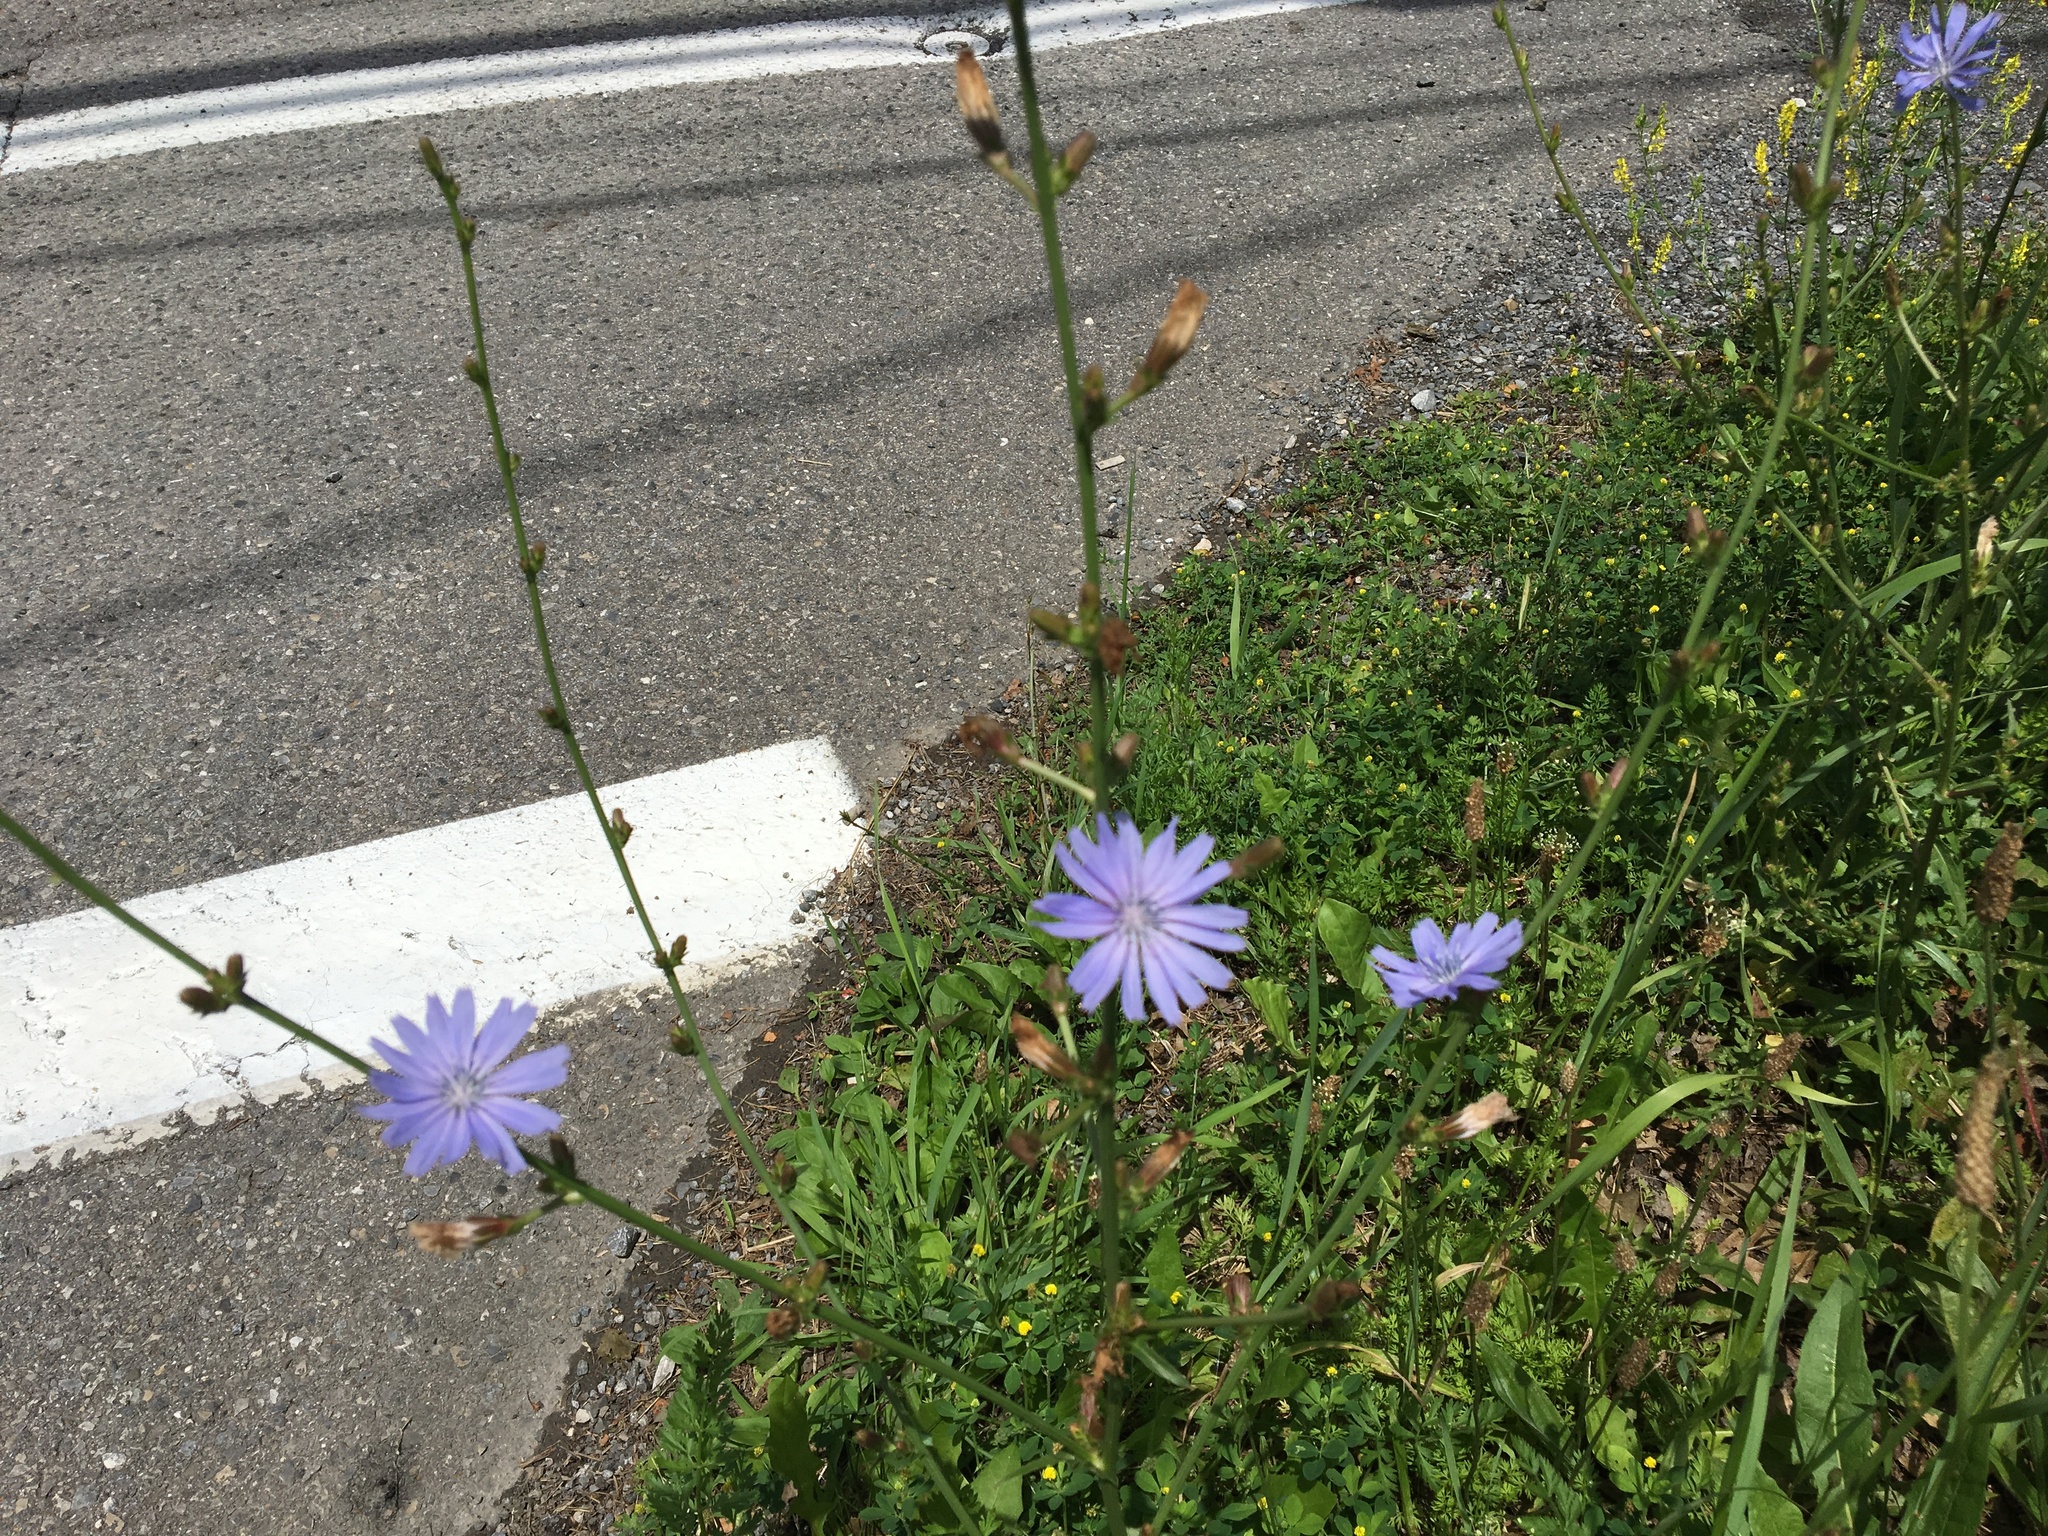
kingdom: Plantae
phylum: Tracheophyta
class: Magnoliopsida
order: Asterales
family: Asteraceae
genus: Cichorium
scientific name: Cichorium intybus
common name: Chicory
